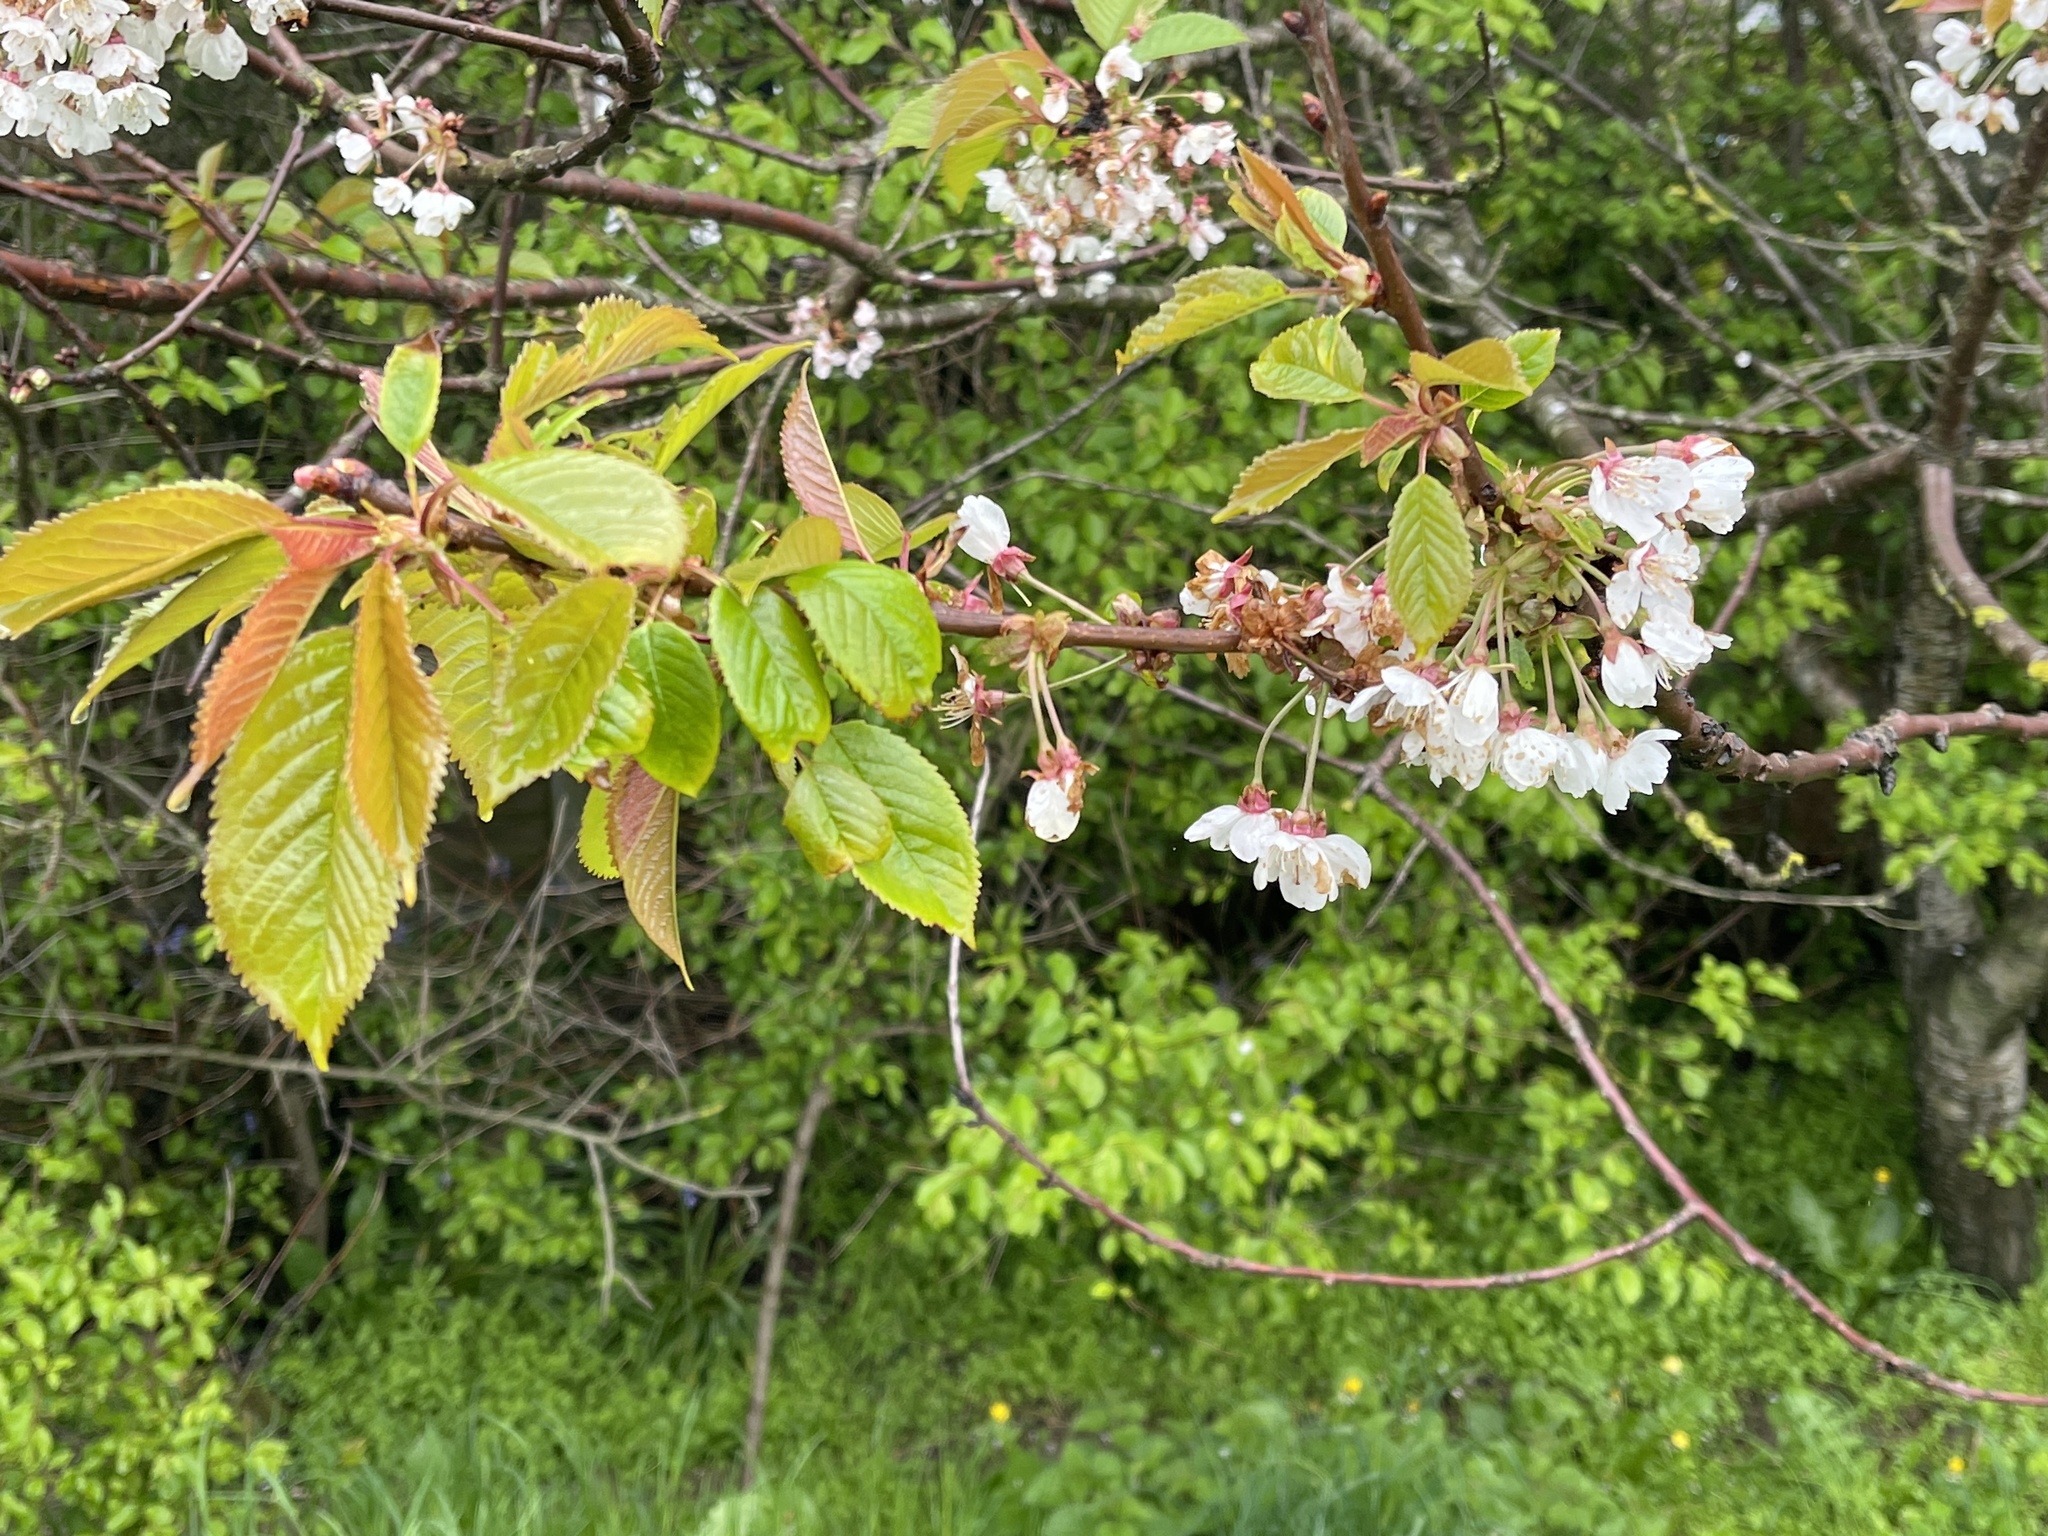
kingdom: Plantae
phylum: Tracheophyta
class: Magnoliopsida
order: Rosales
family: Rosaceae
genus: Prunus
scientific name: Prunus avium
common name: Sweet cherry
